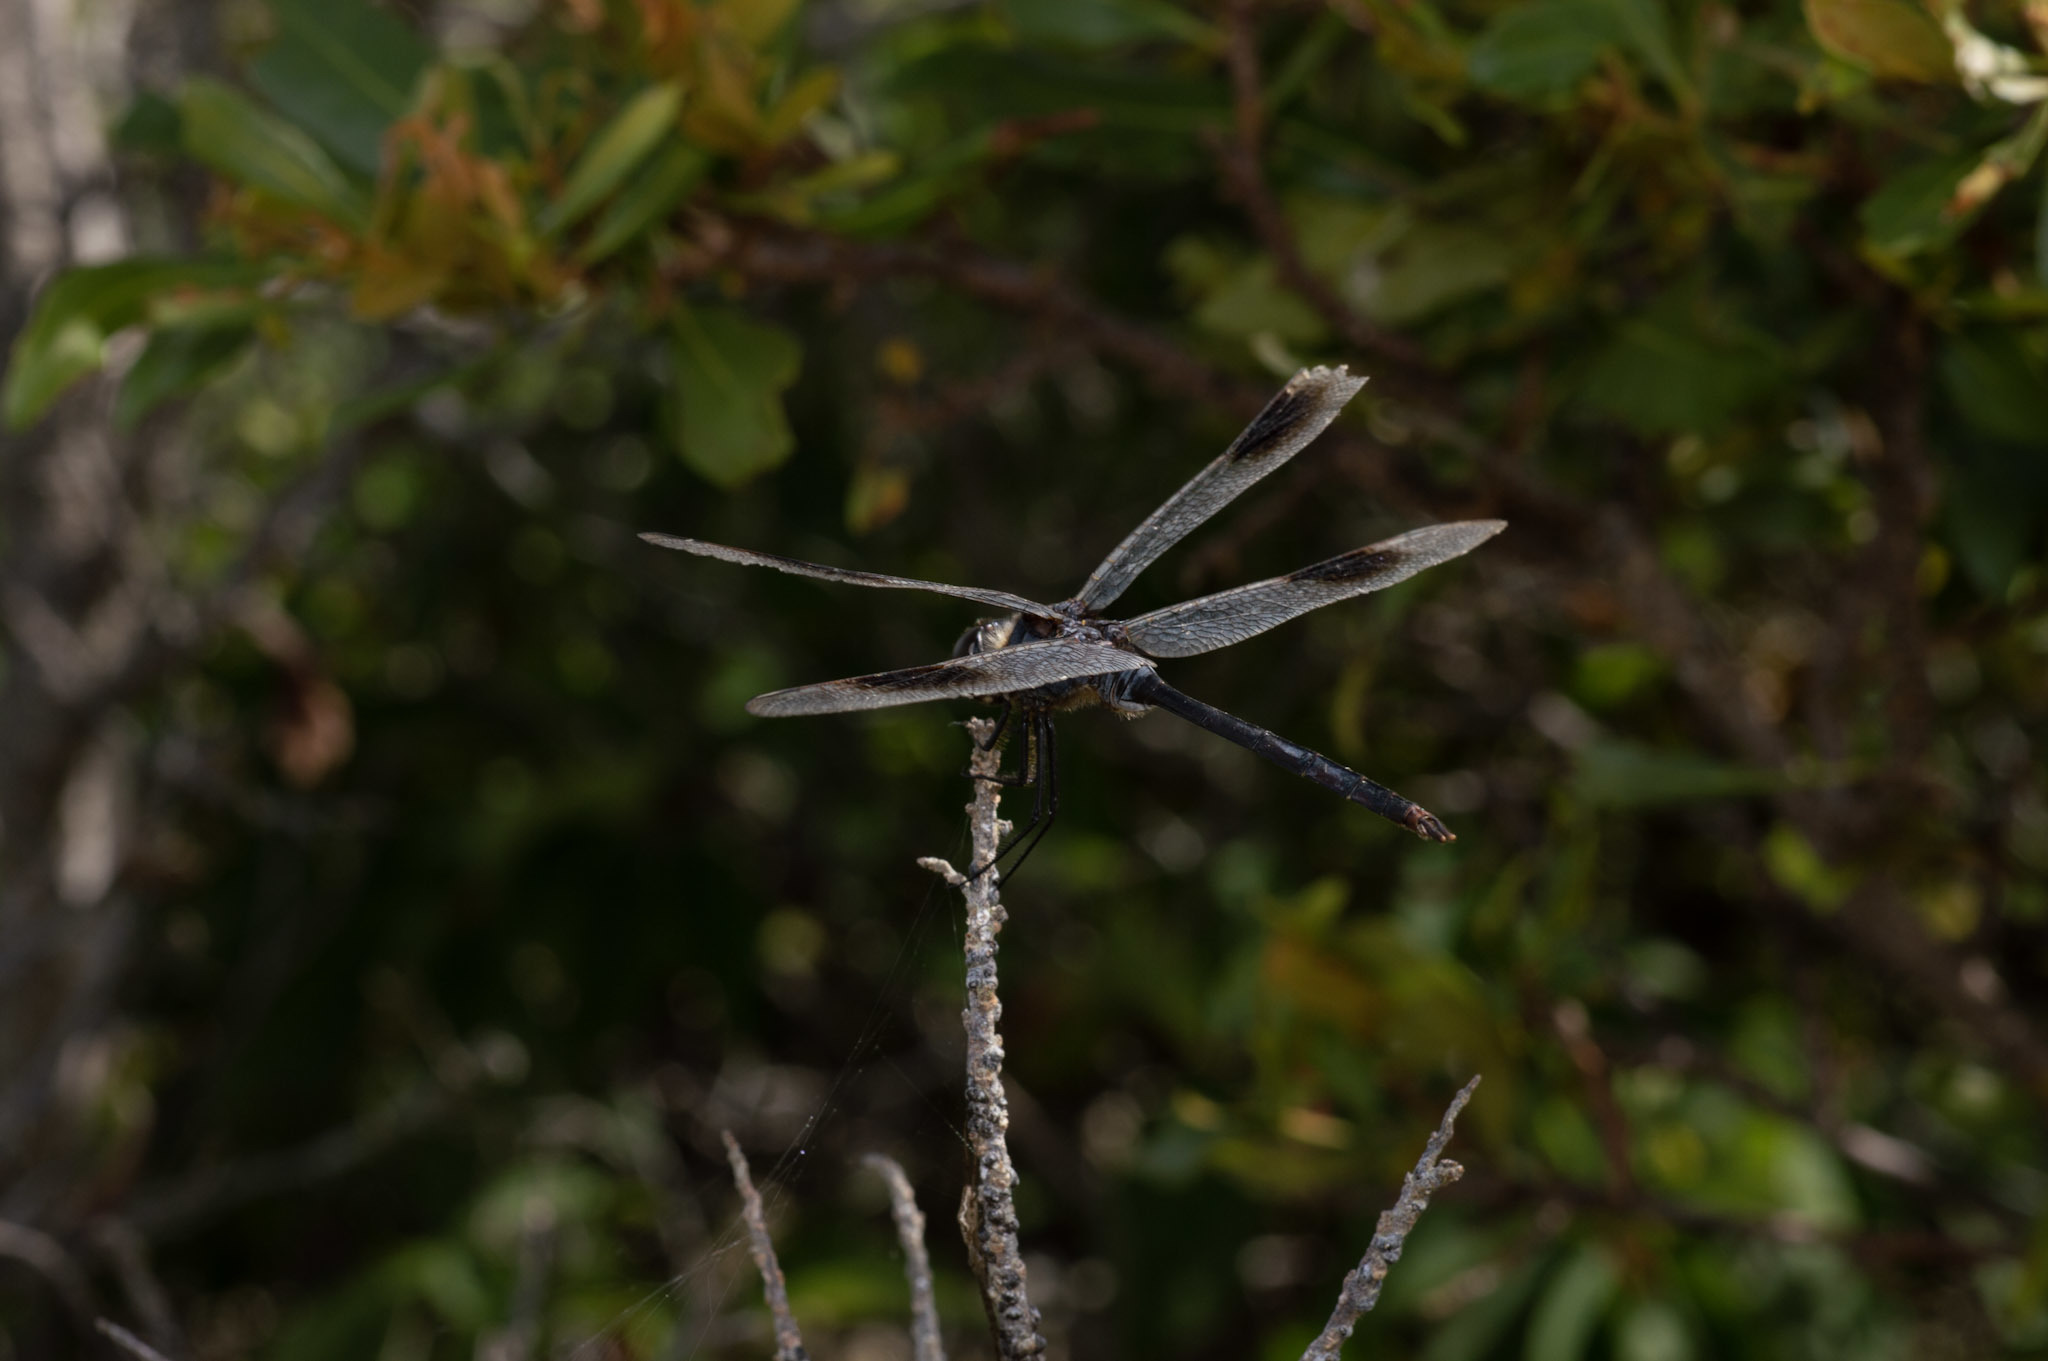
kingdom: Animalia
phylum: Arthropoda
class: Insecta
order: Odonata
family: Libellulidae
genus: Brachymesia
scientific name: Brachymesia gravida
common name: Four-spotted pennant
